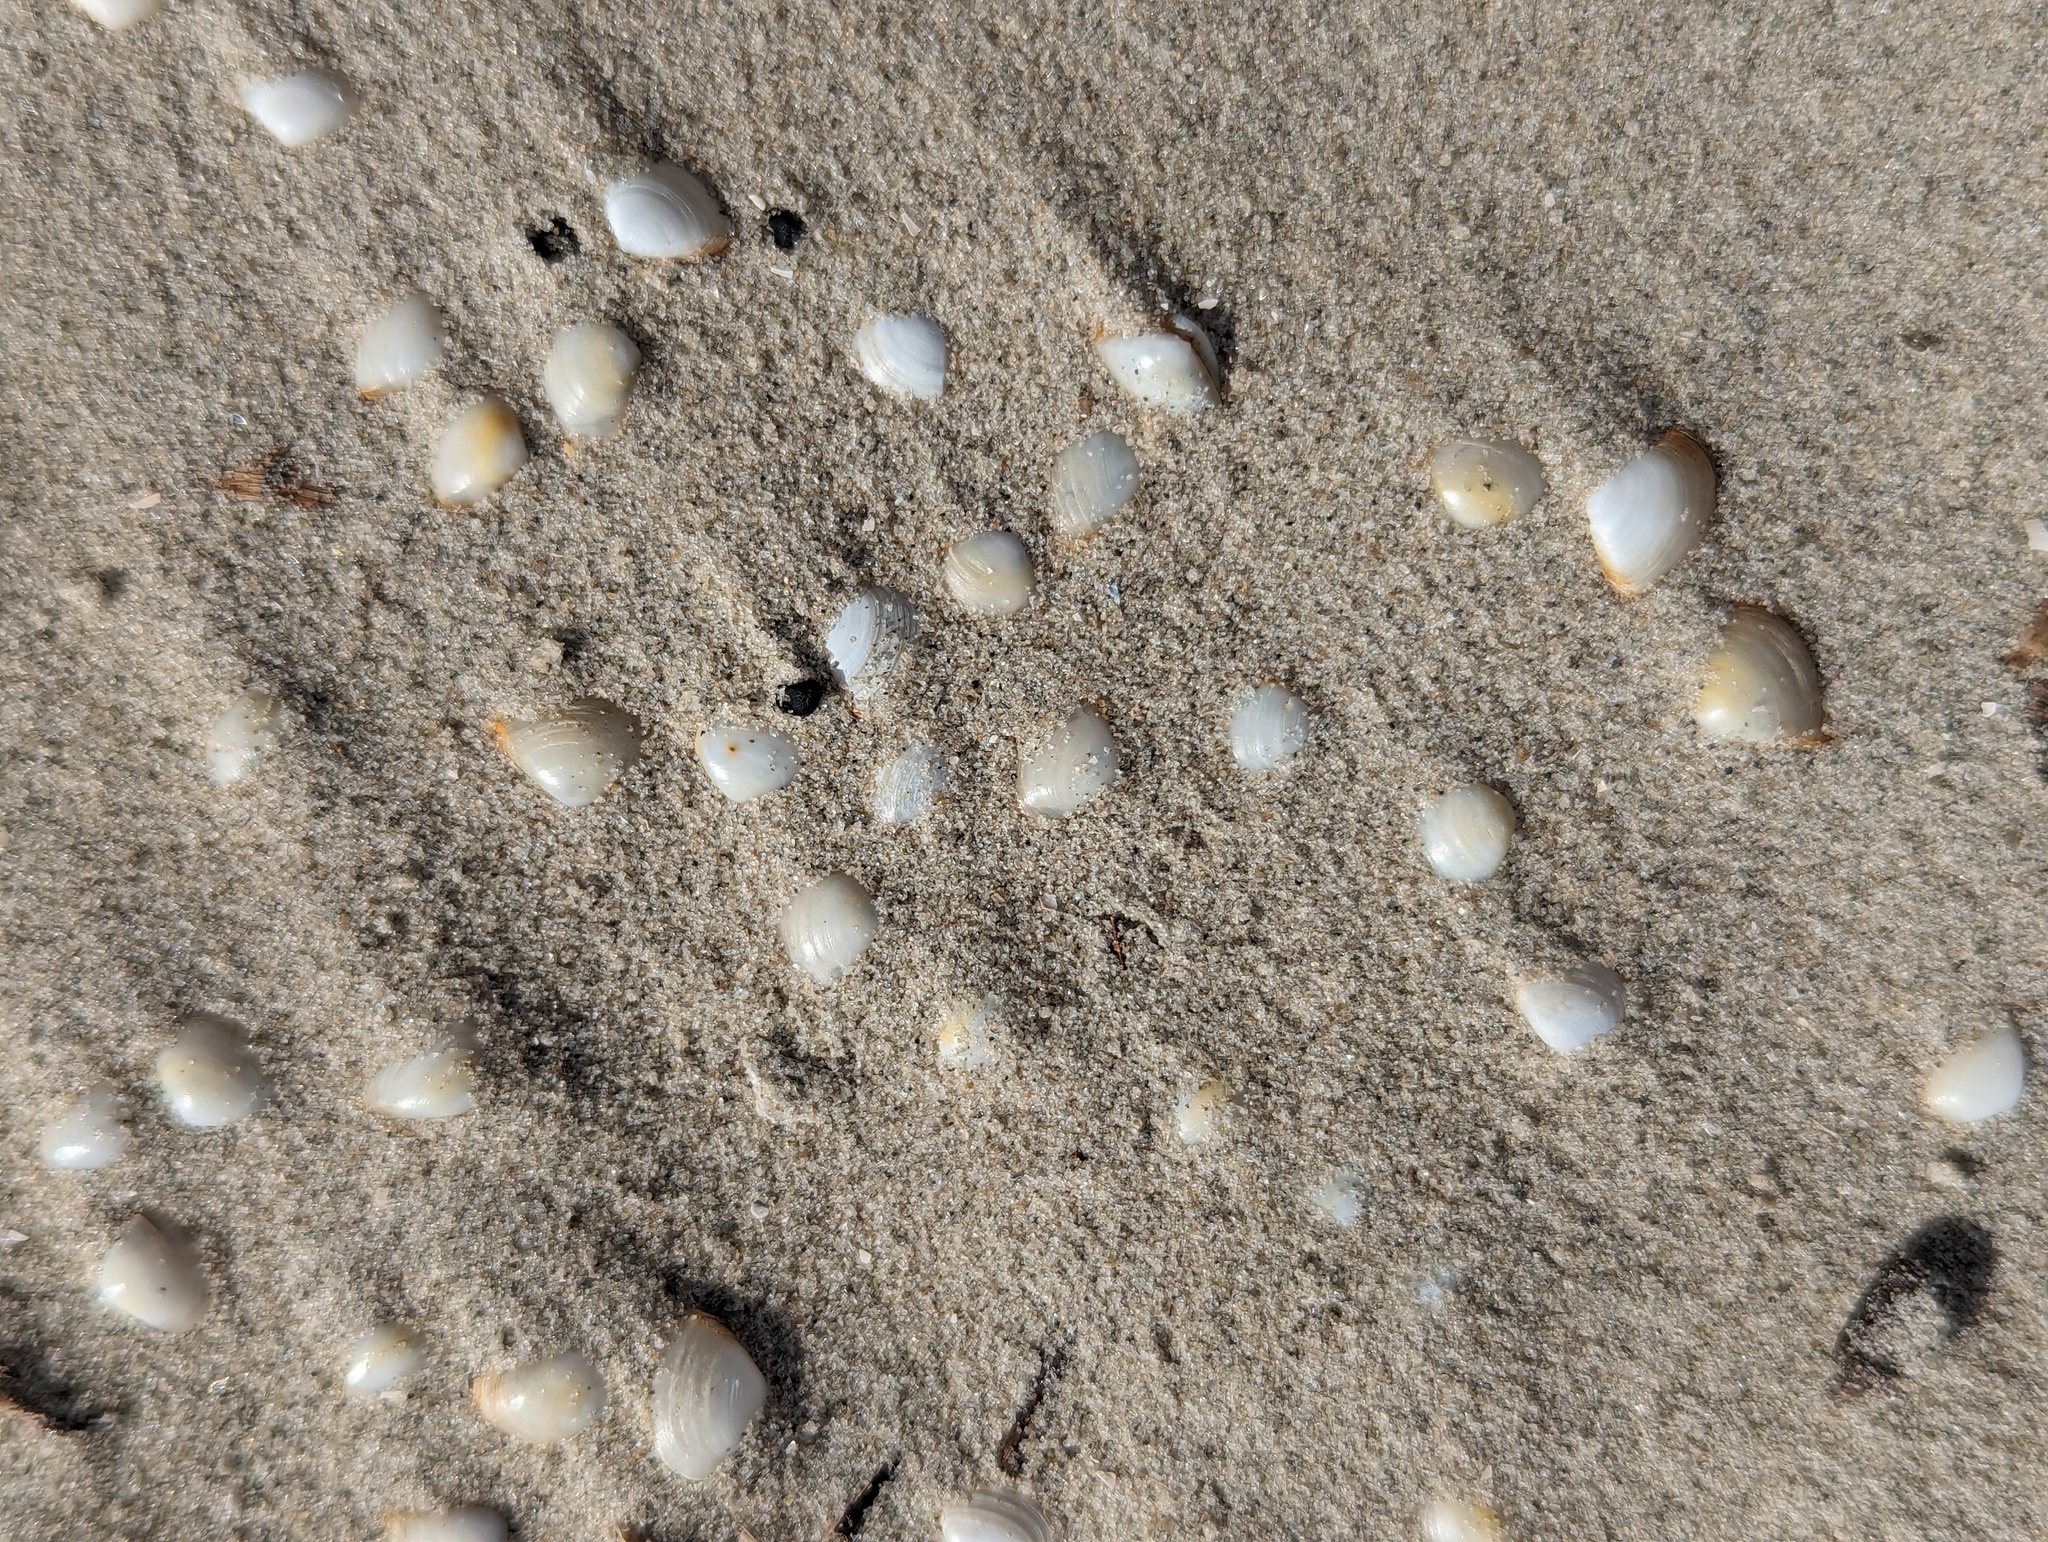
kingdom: Animalia
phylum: Mollusca
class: Bivalvia
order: Venerida
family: Mactridae
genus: Mulinia
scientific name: Mulinia lateralis
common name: Dwarf surfclam
